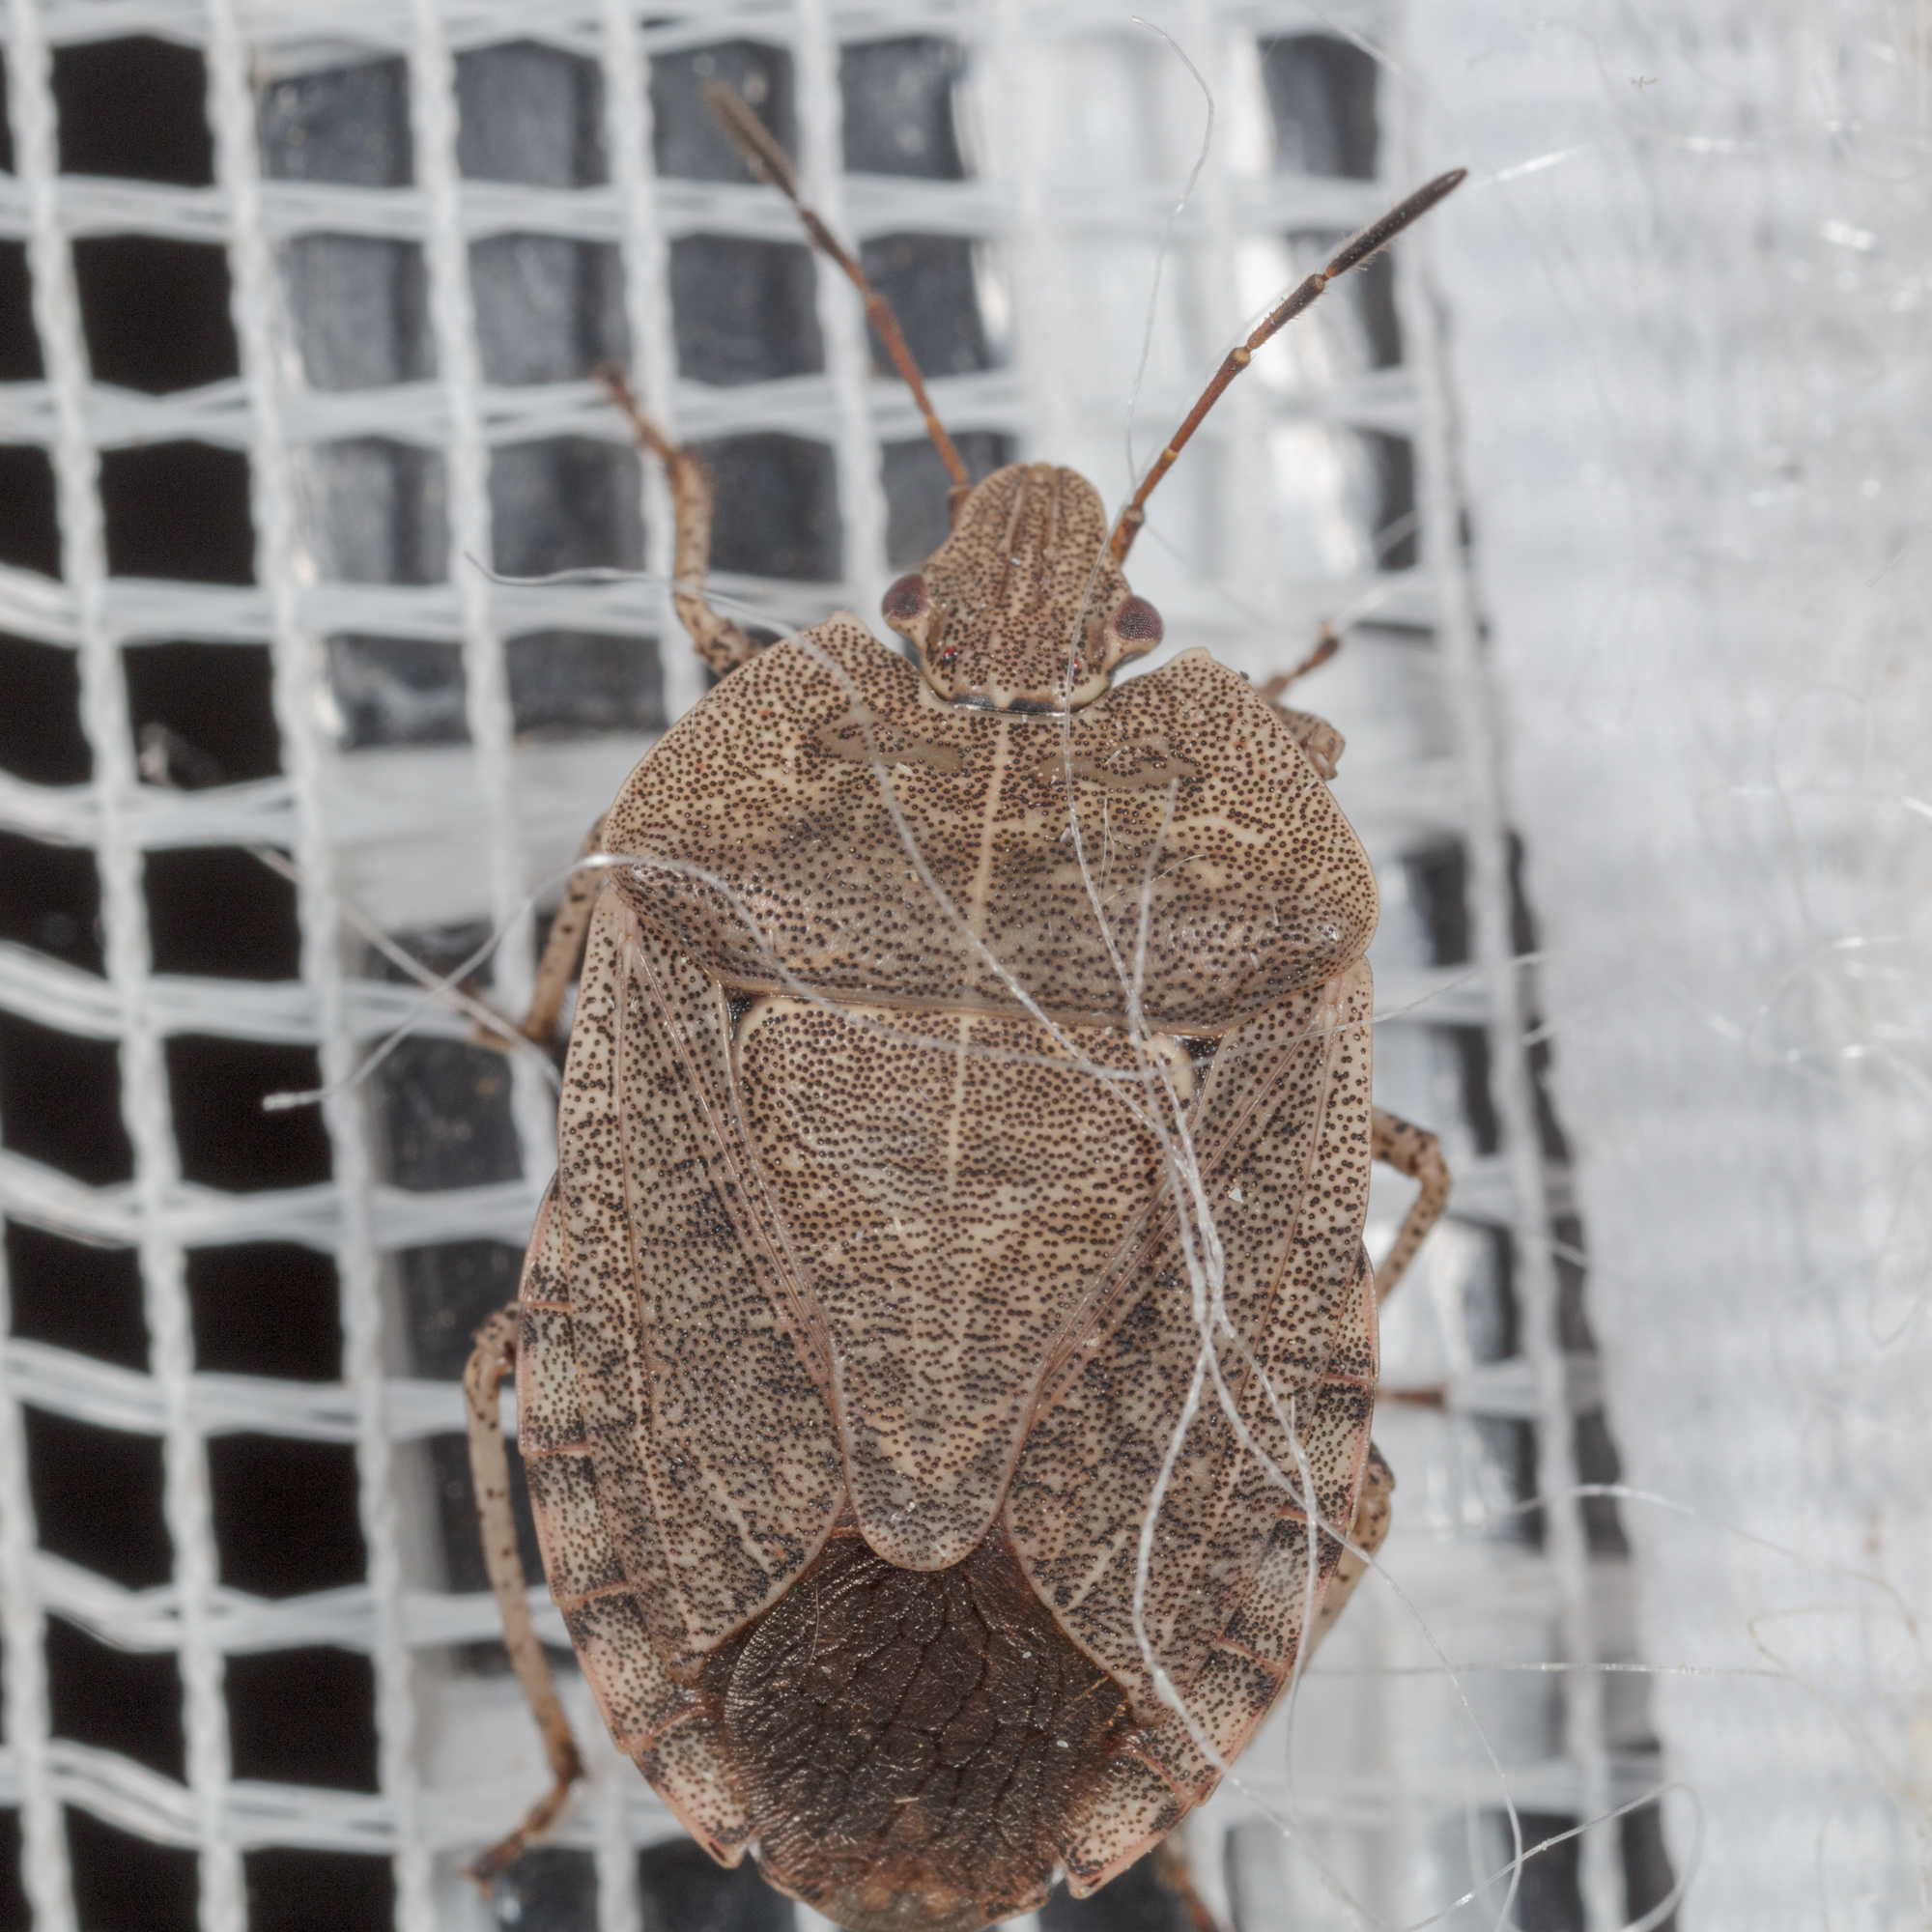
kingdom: Animalia
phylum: Arthropoda
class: Insecta
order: Hemiptera
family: Pentatomidae
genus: Menecles
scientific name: Menecles insertus
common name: Elf shoe stink bug
